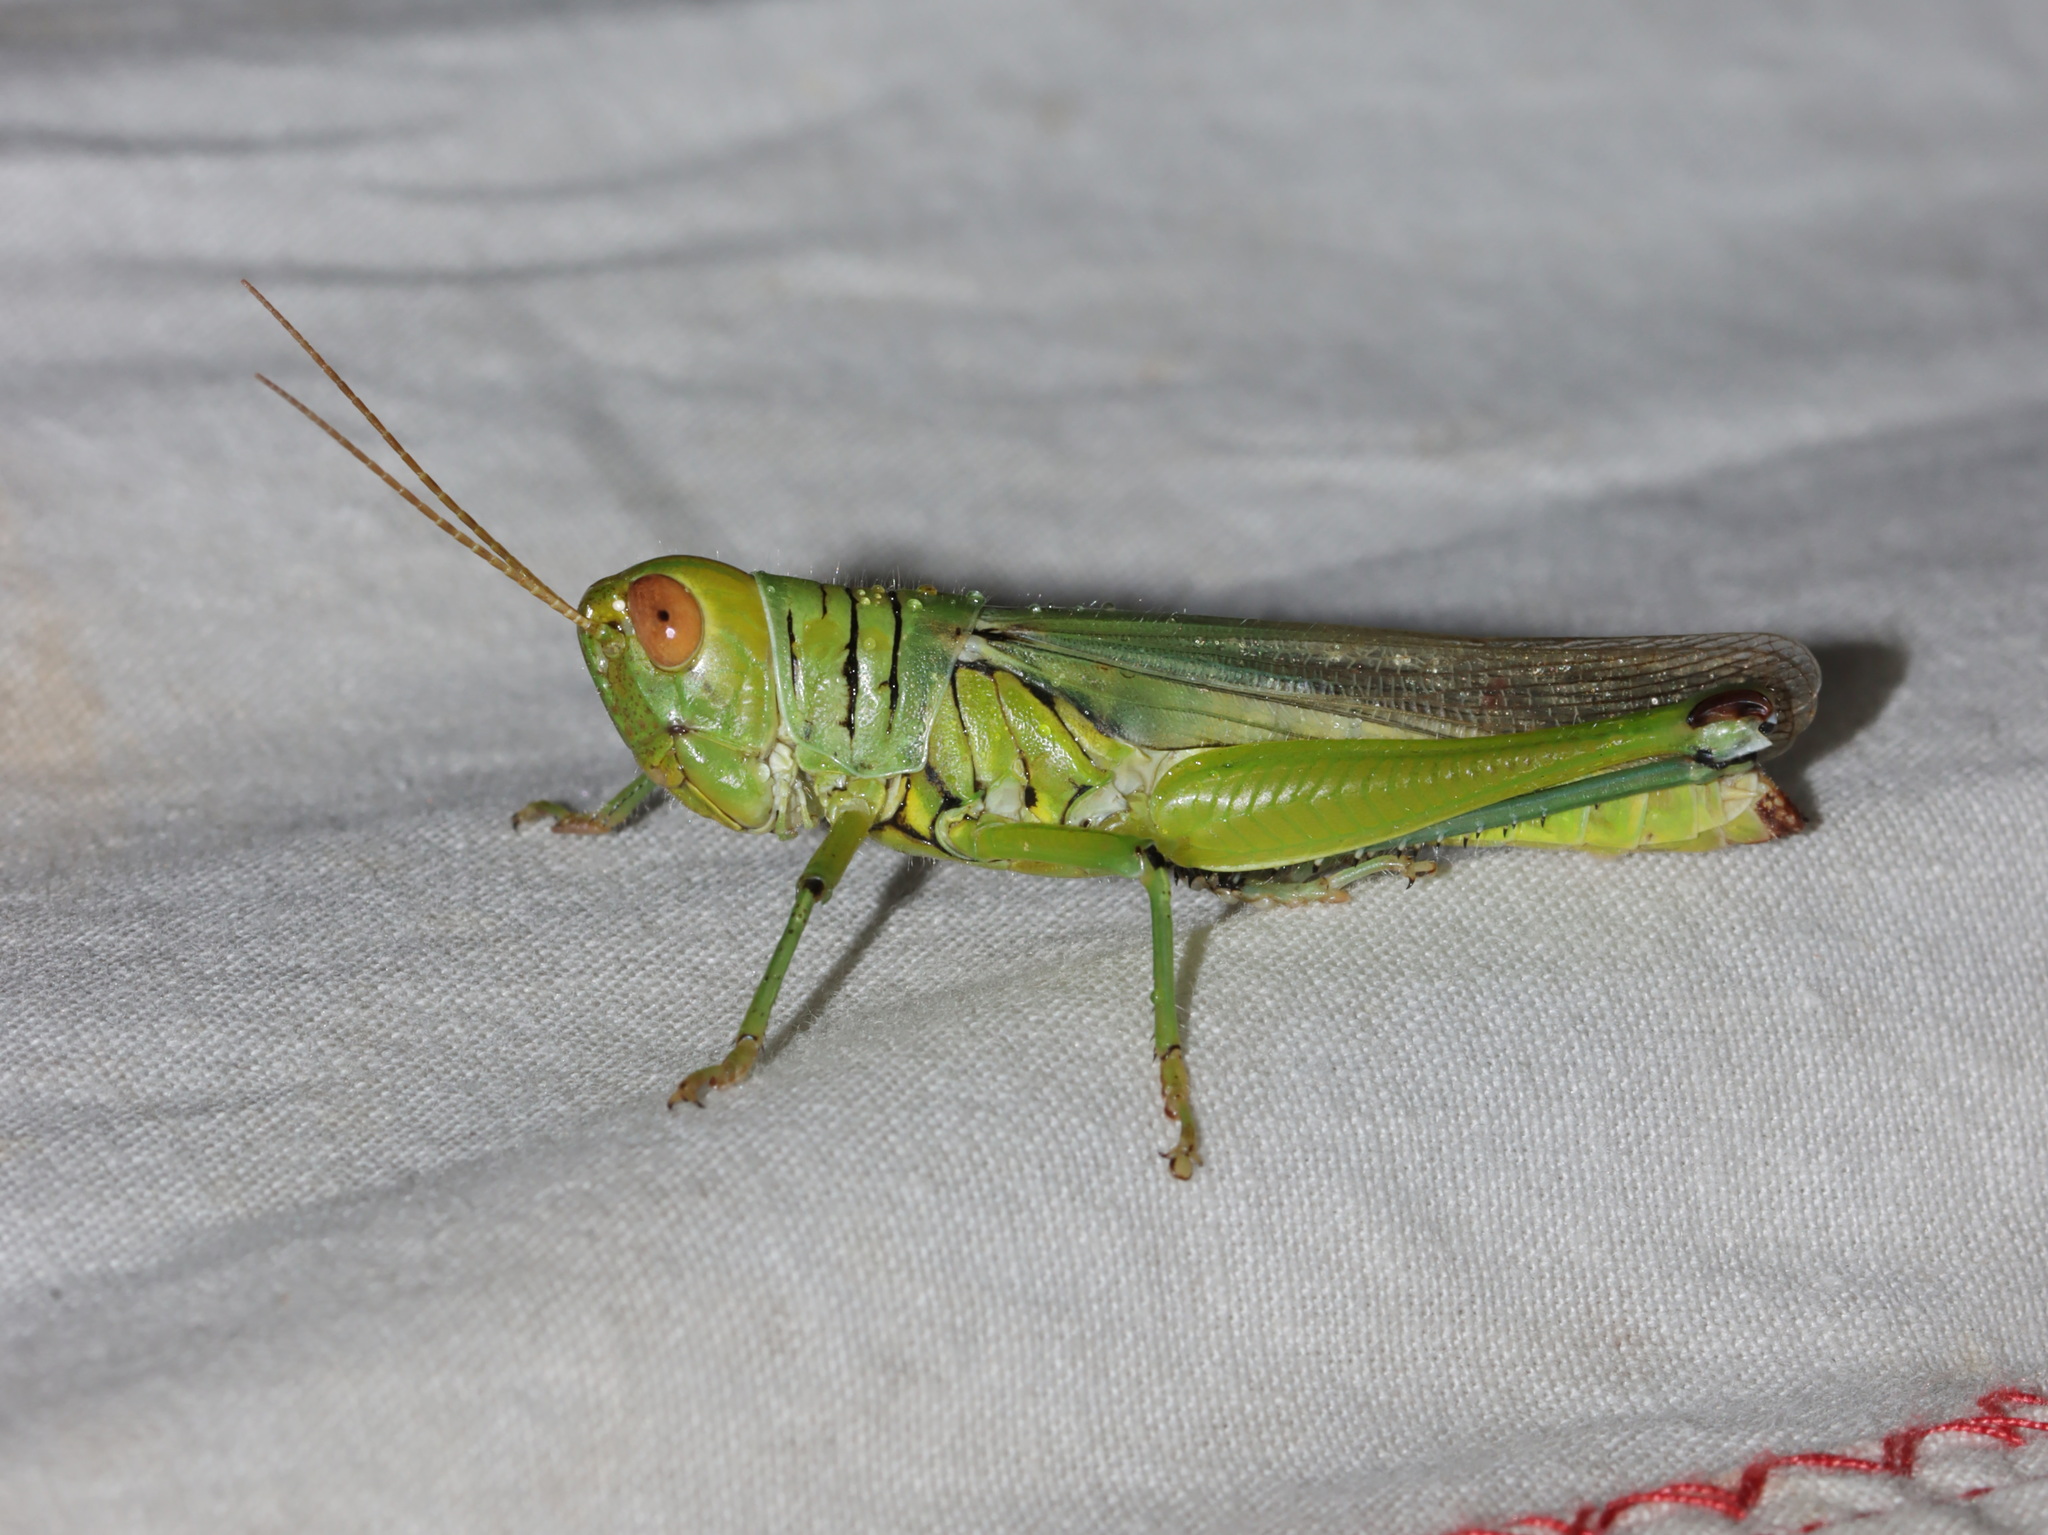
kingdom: Animalia
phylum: Arthropoda
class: Insecta
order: Orthoptera
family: Acrididae
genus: Hieroglyphus
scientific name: Hieroglyphus tonkinensis
